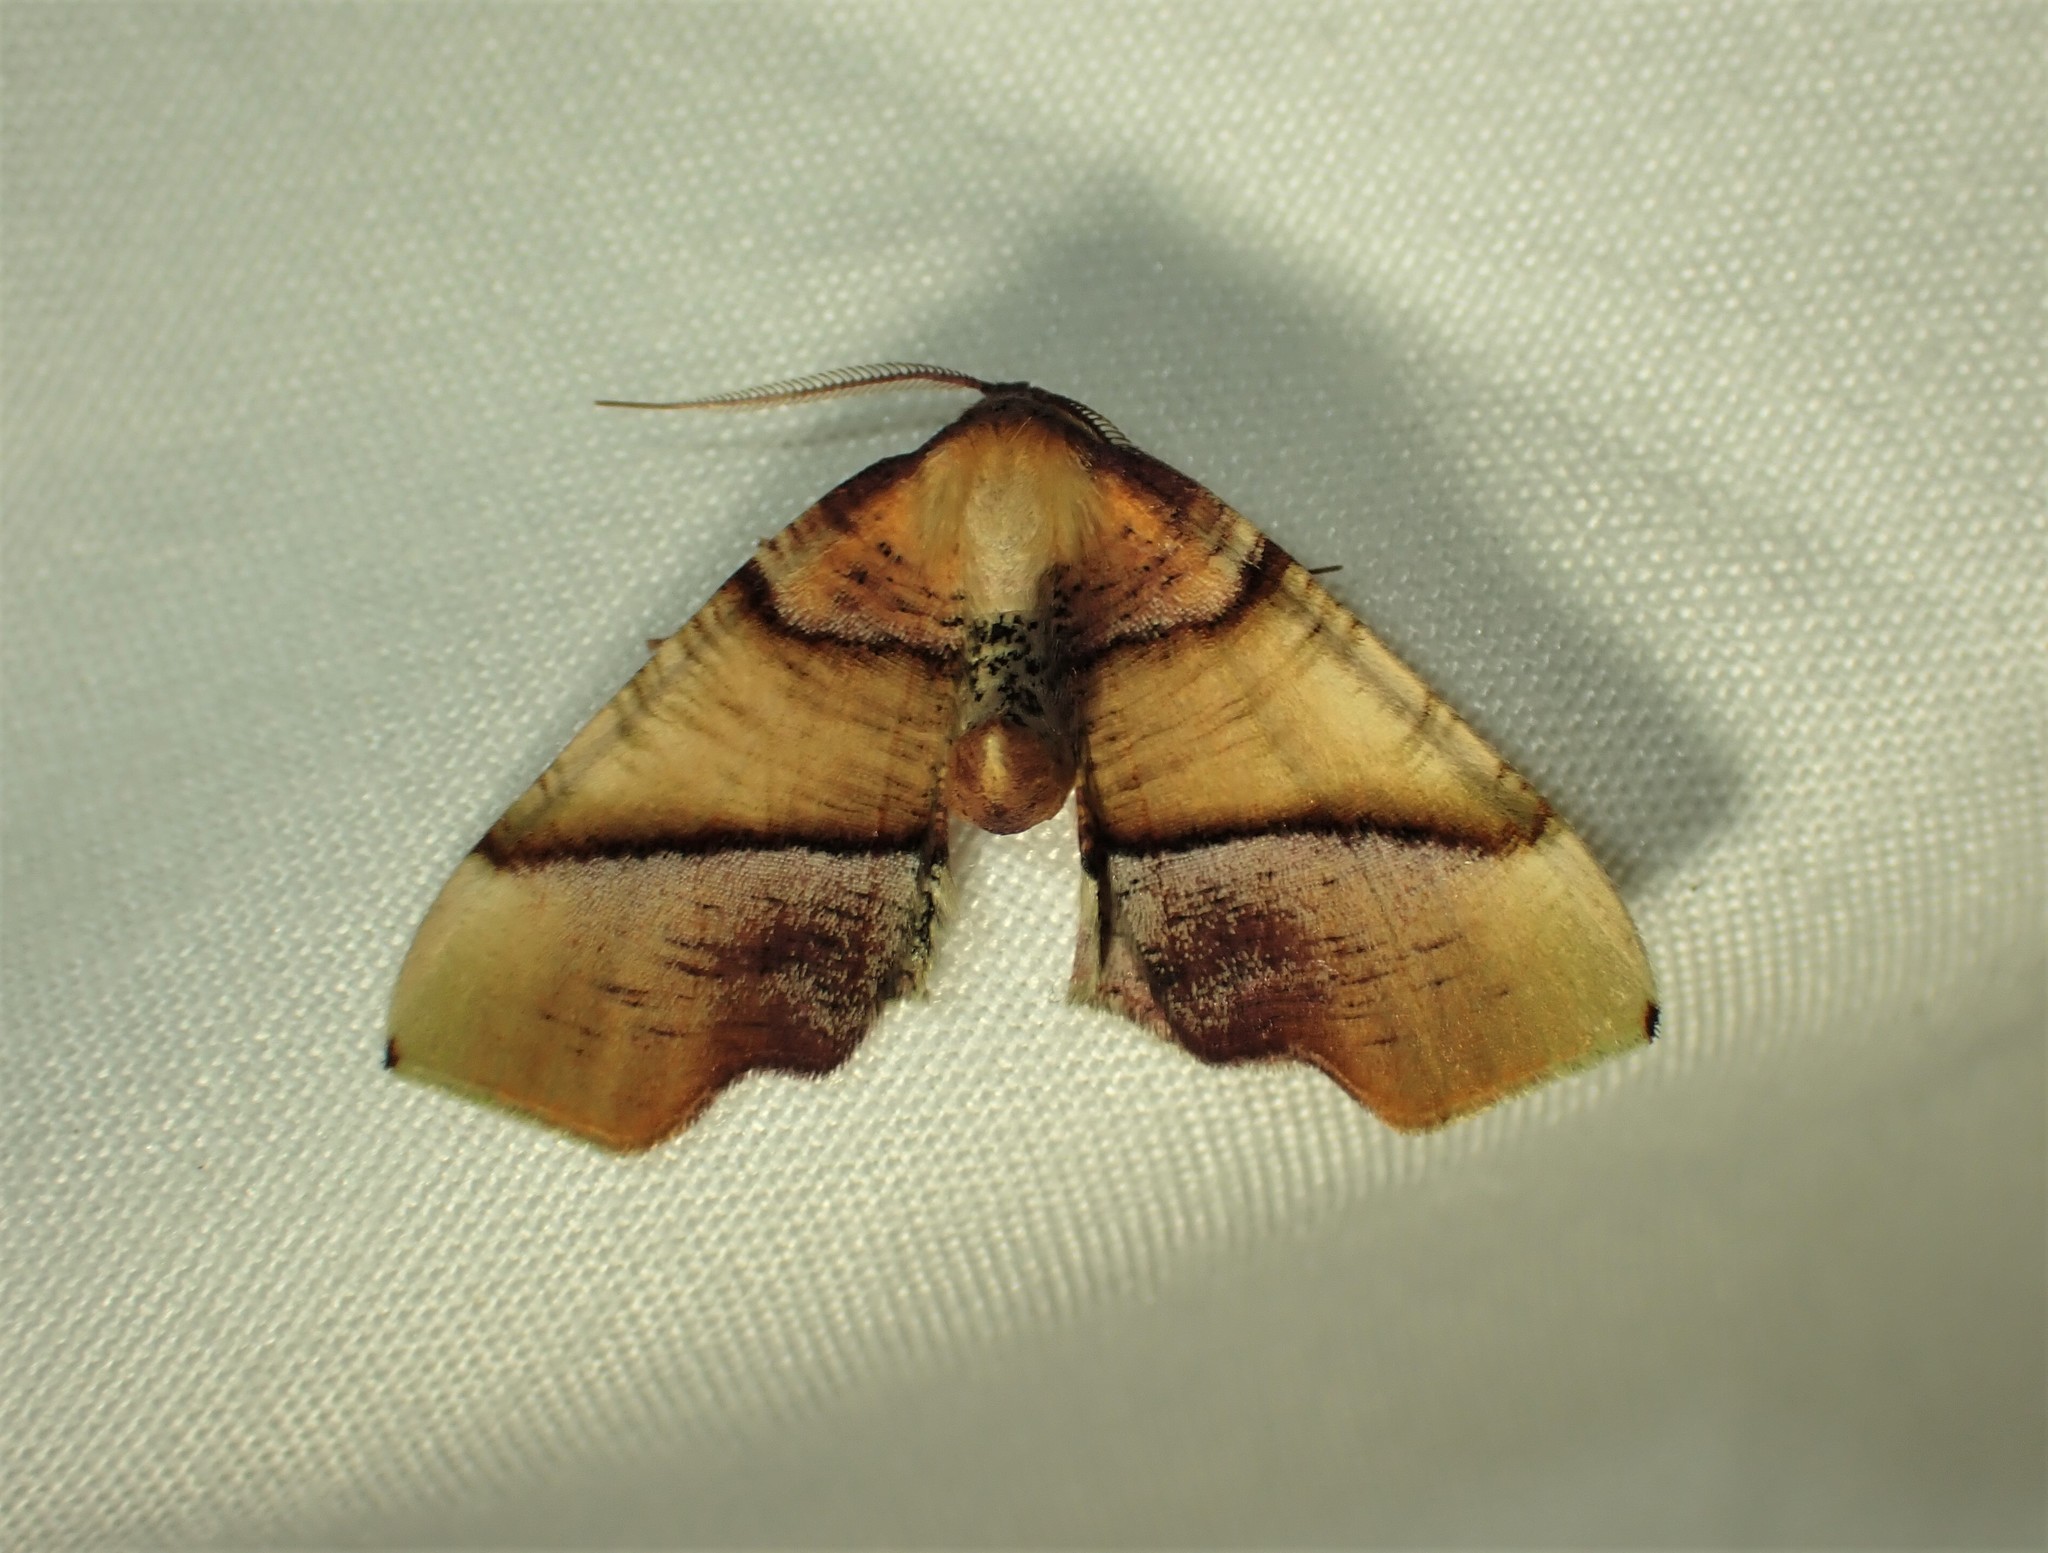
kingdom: Animalia
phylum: Arthropoda
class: Insecta
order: Lepidoptera
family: Geometridae
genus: Plagodis
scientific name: Plagodis phlogosaria
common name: Straight-lined plagodis
